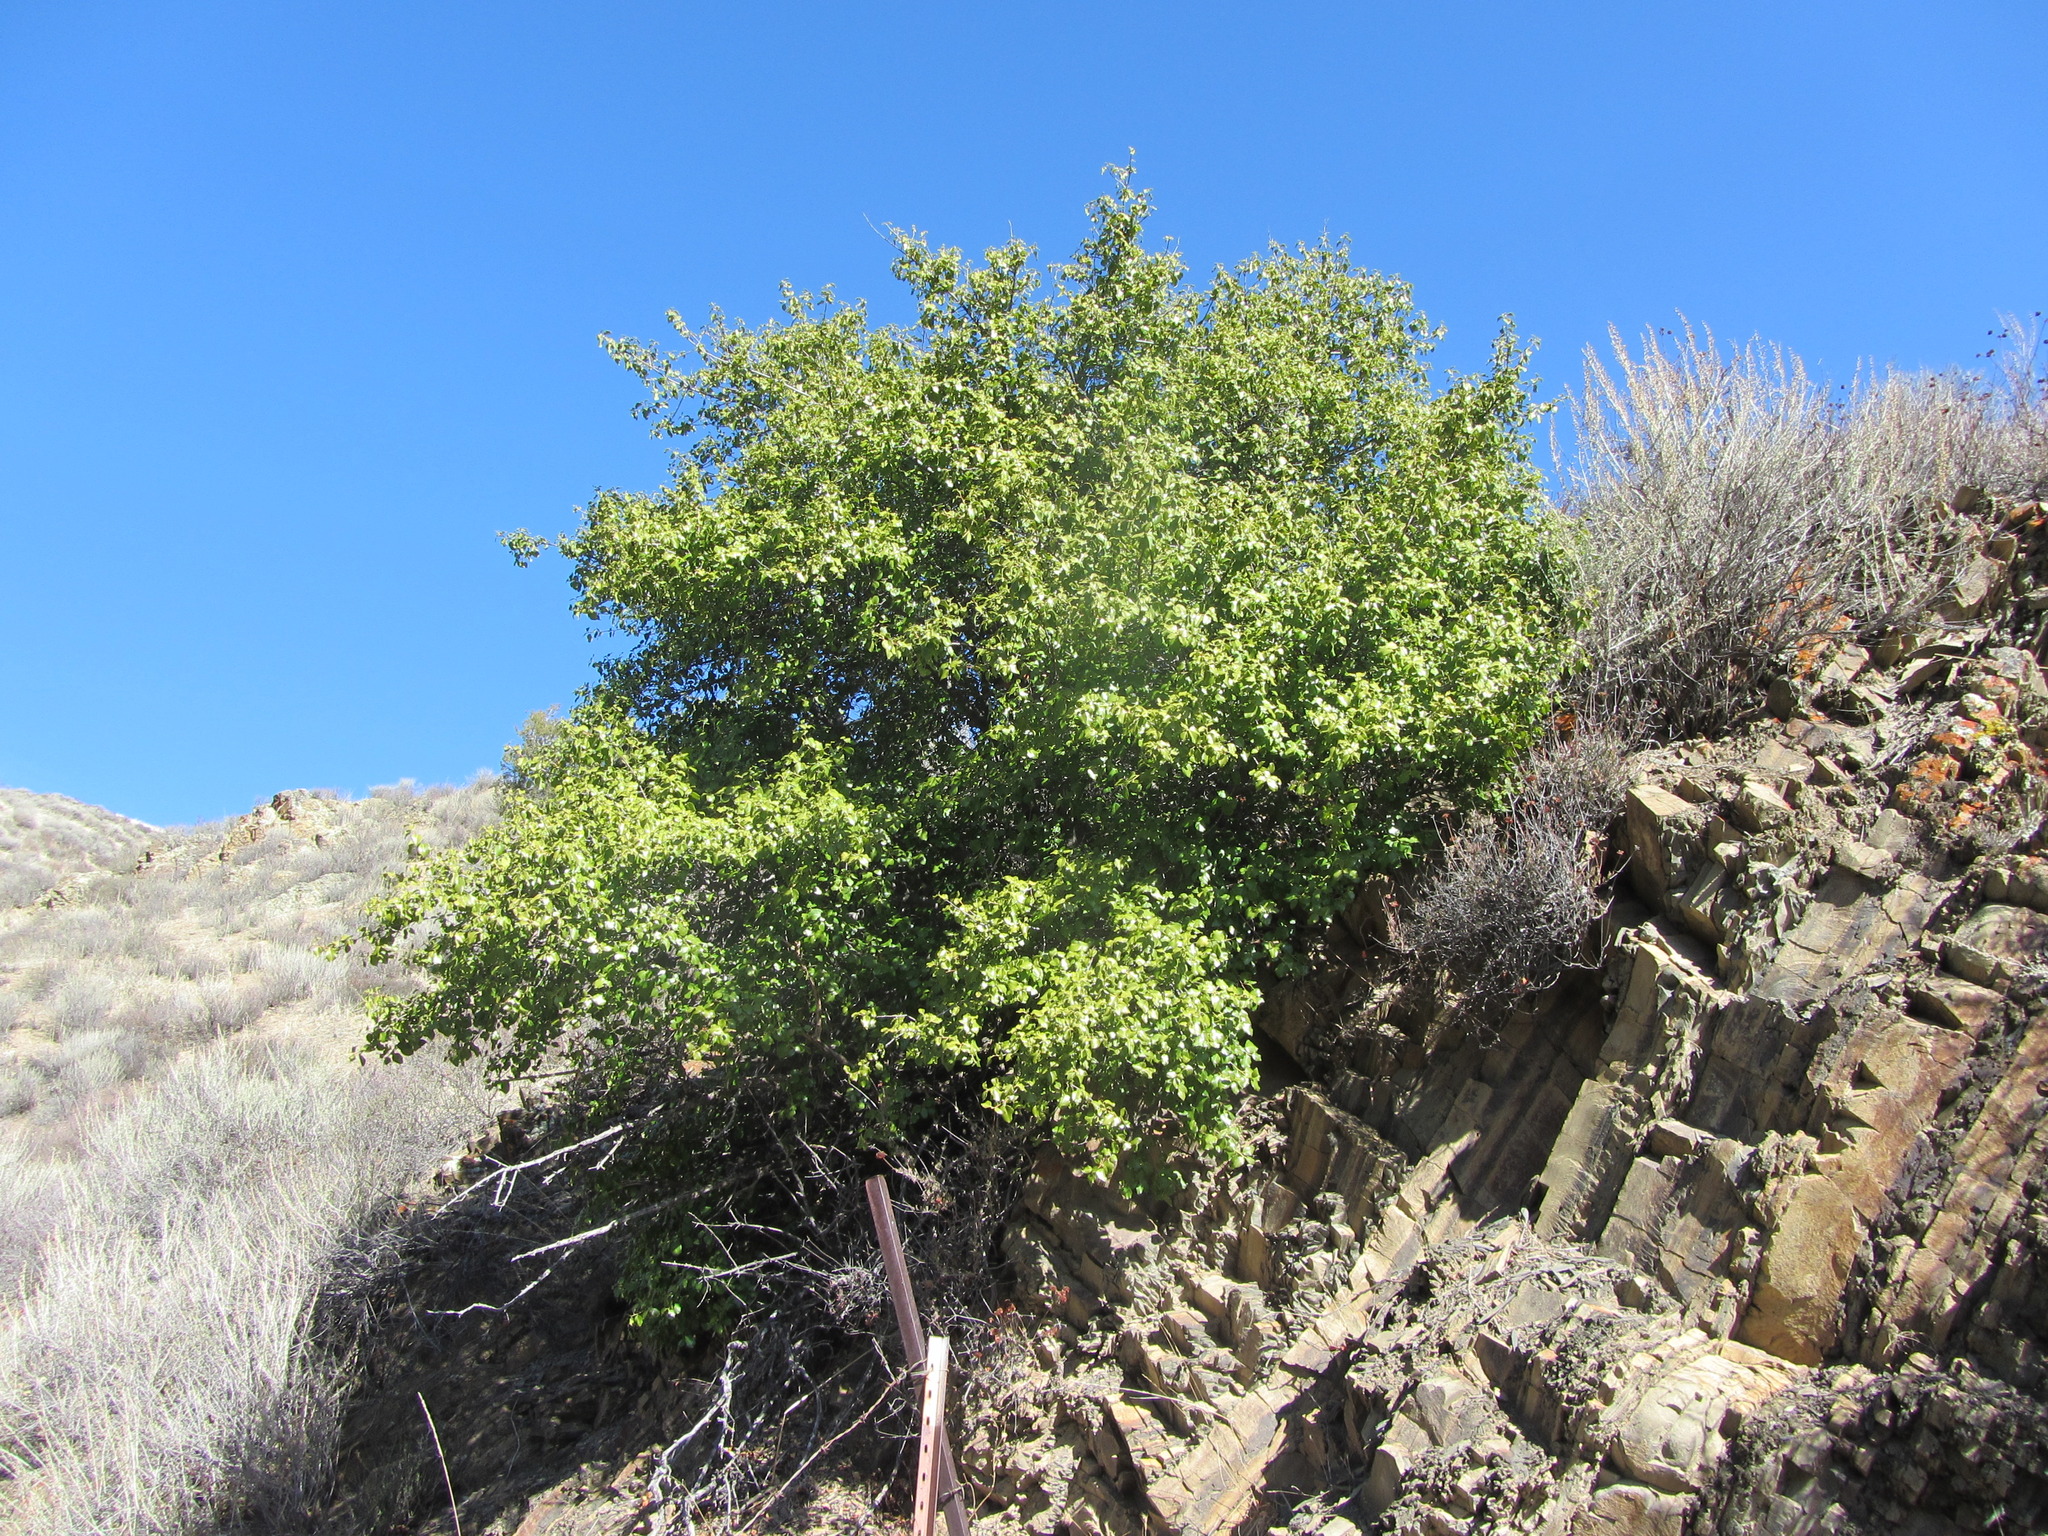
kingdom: Plantae
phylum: Tracheophyta
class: Magnoliopsida
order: Rosales
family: Rosaceae
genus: Prunus
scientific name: Prunus ilicifolia
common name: Hollyleaf cherry
